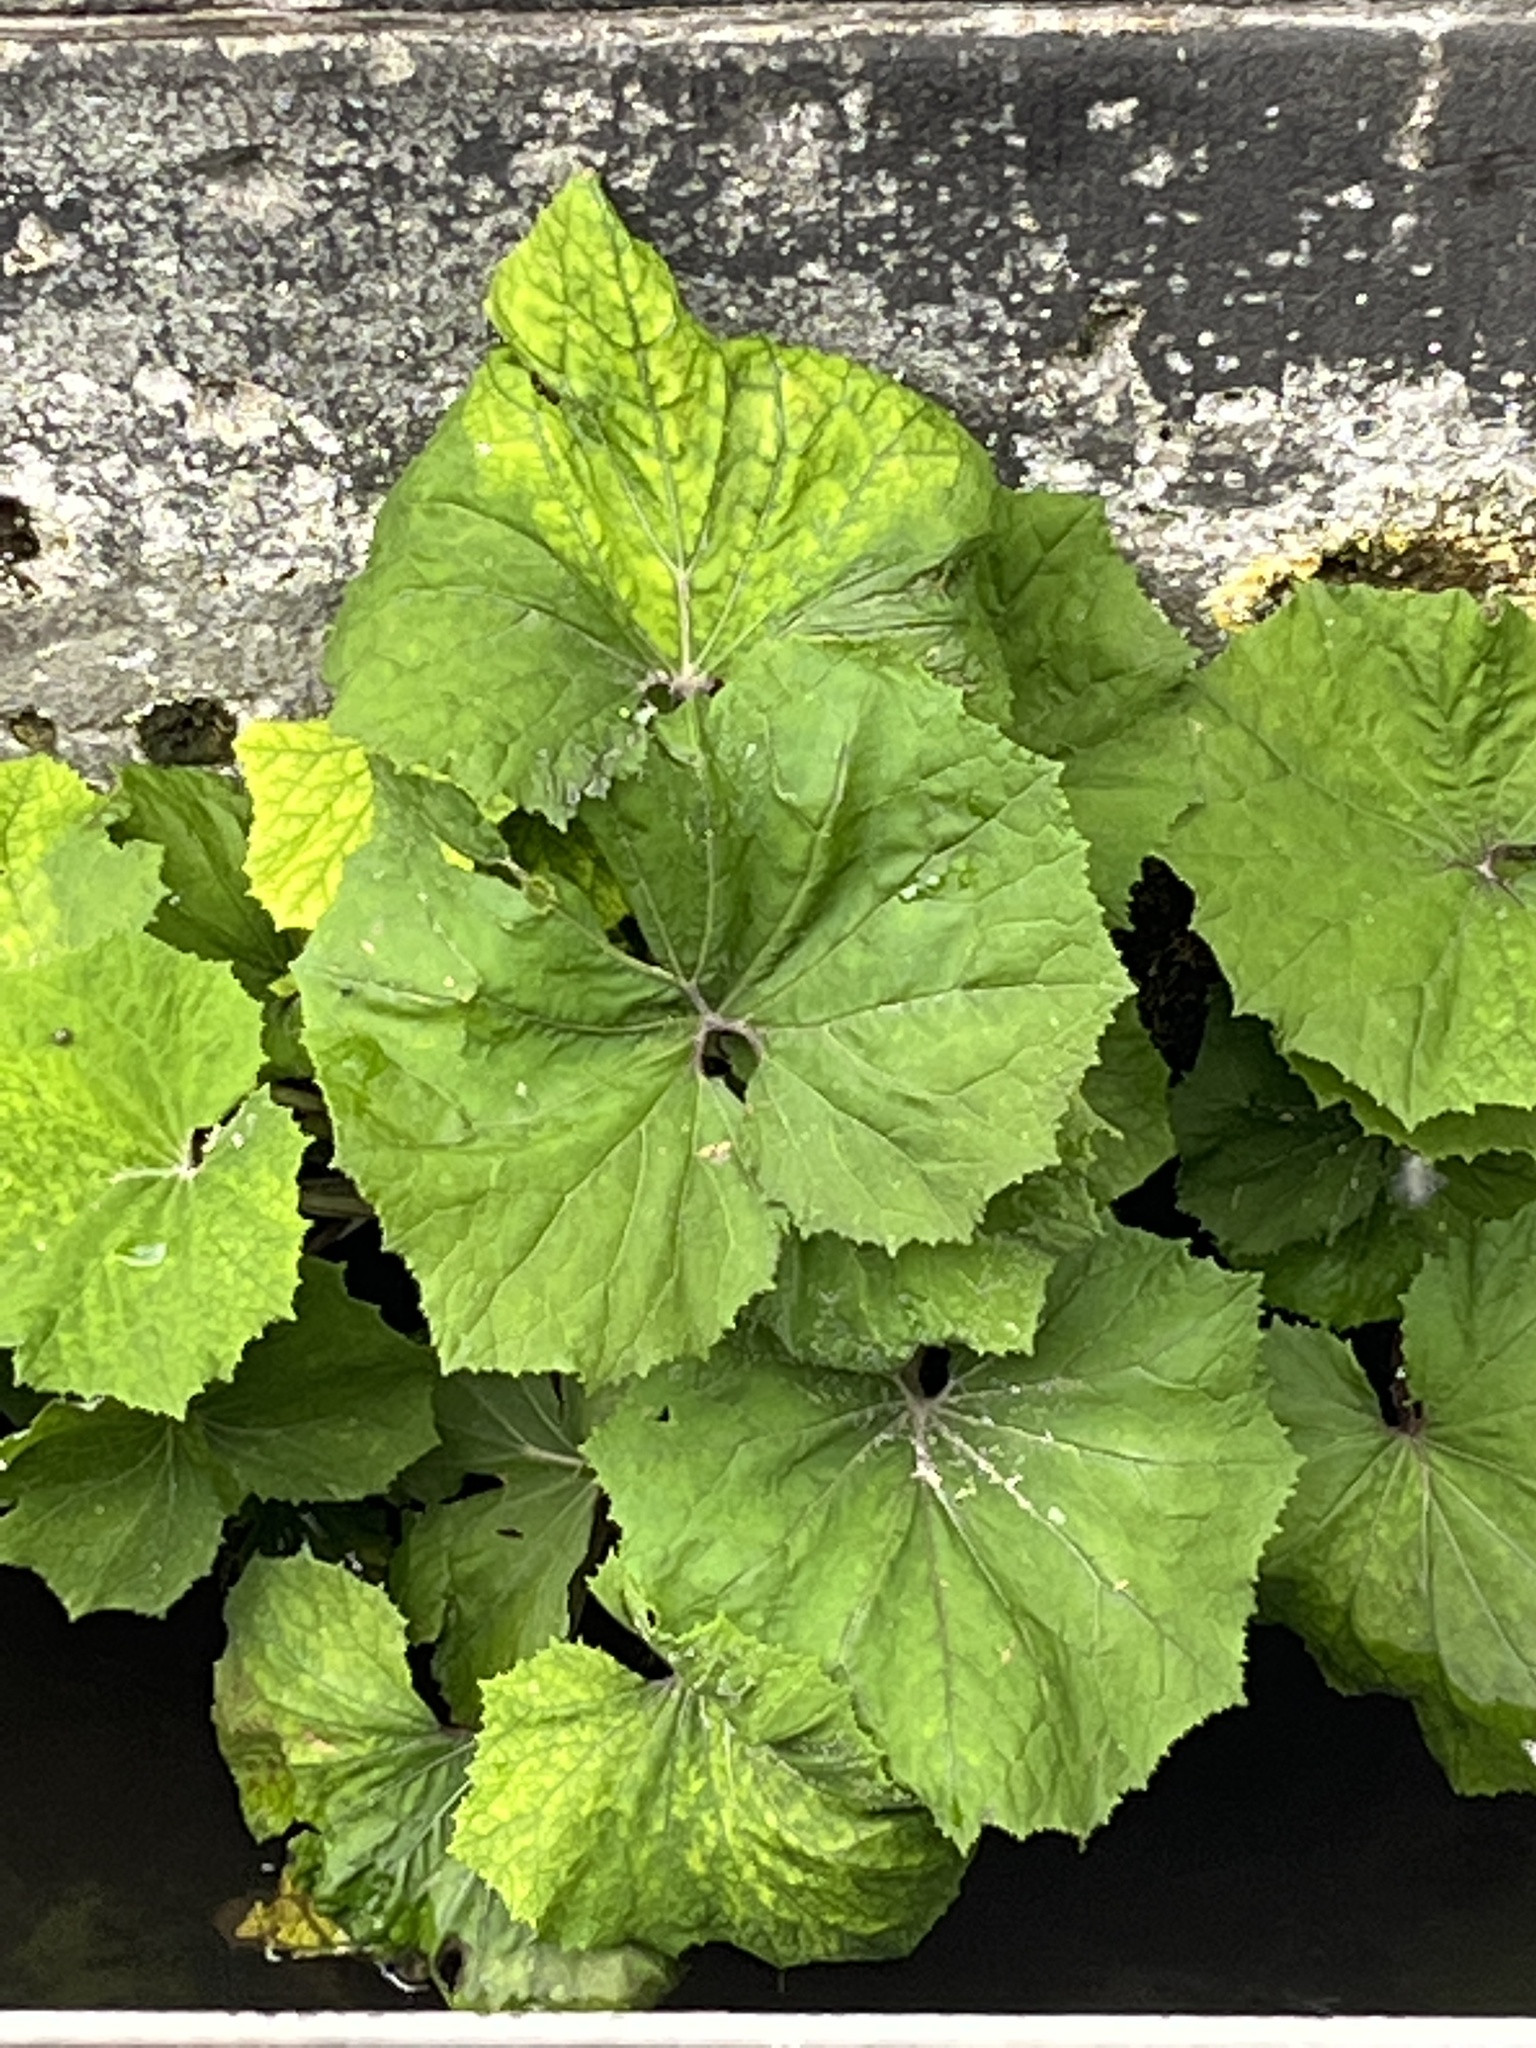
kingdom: Plantae
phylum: Tracheophyta
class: Magnoliopsida
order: Asterales
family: Asteraceae
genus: Tussilago
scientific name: Tussilago farfara
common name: Coltsfoot
